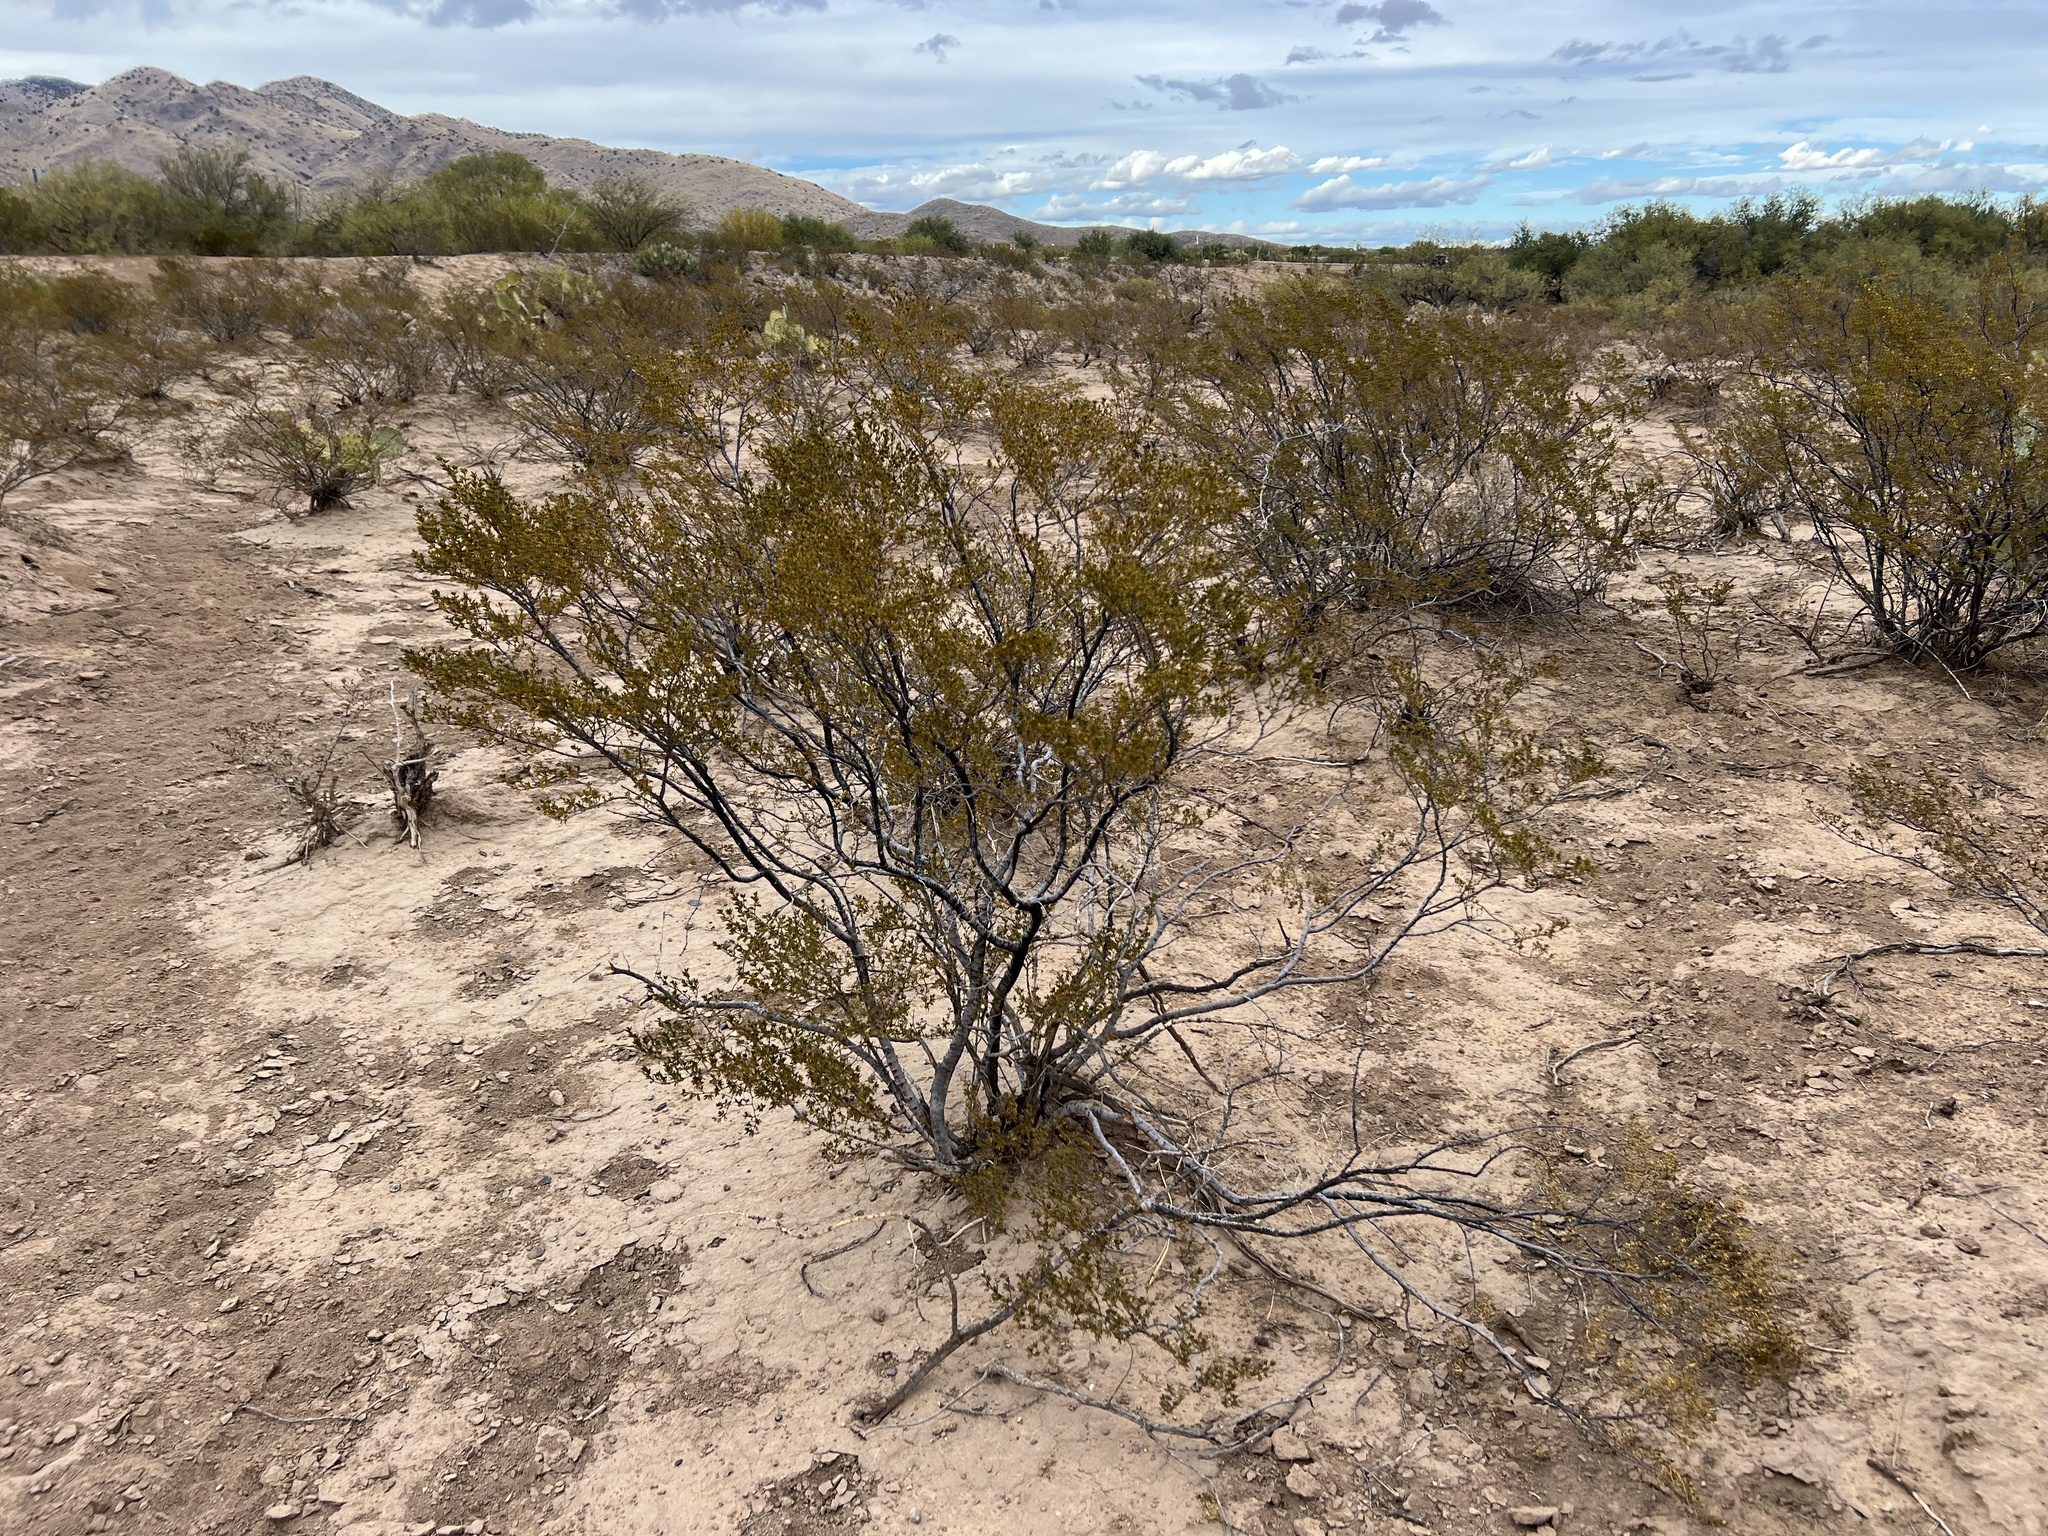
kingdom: Plantae
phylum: Tracheophyta
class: Magnoliopsida
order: Zygophyllales
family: Zygophyllaceae
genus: Larrea
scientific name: Larrea tridentata
